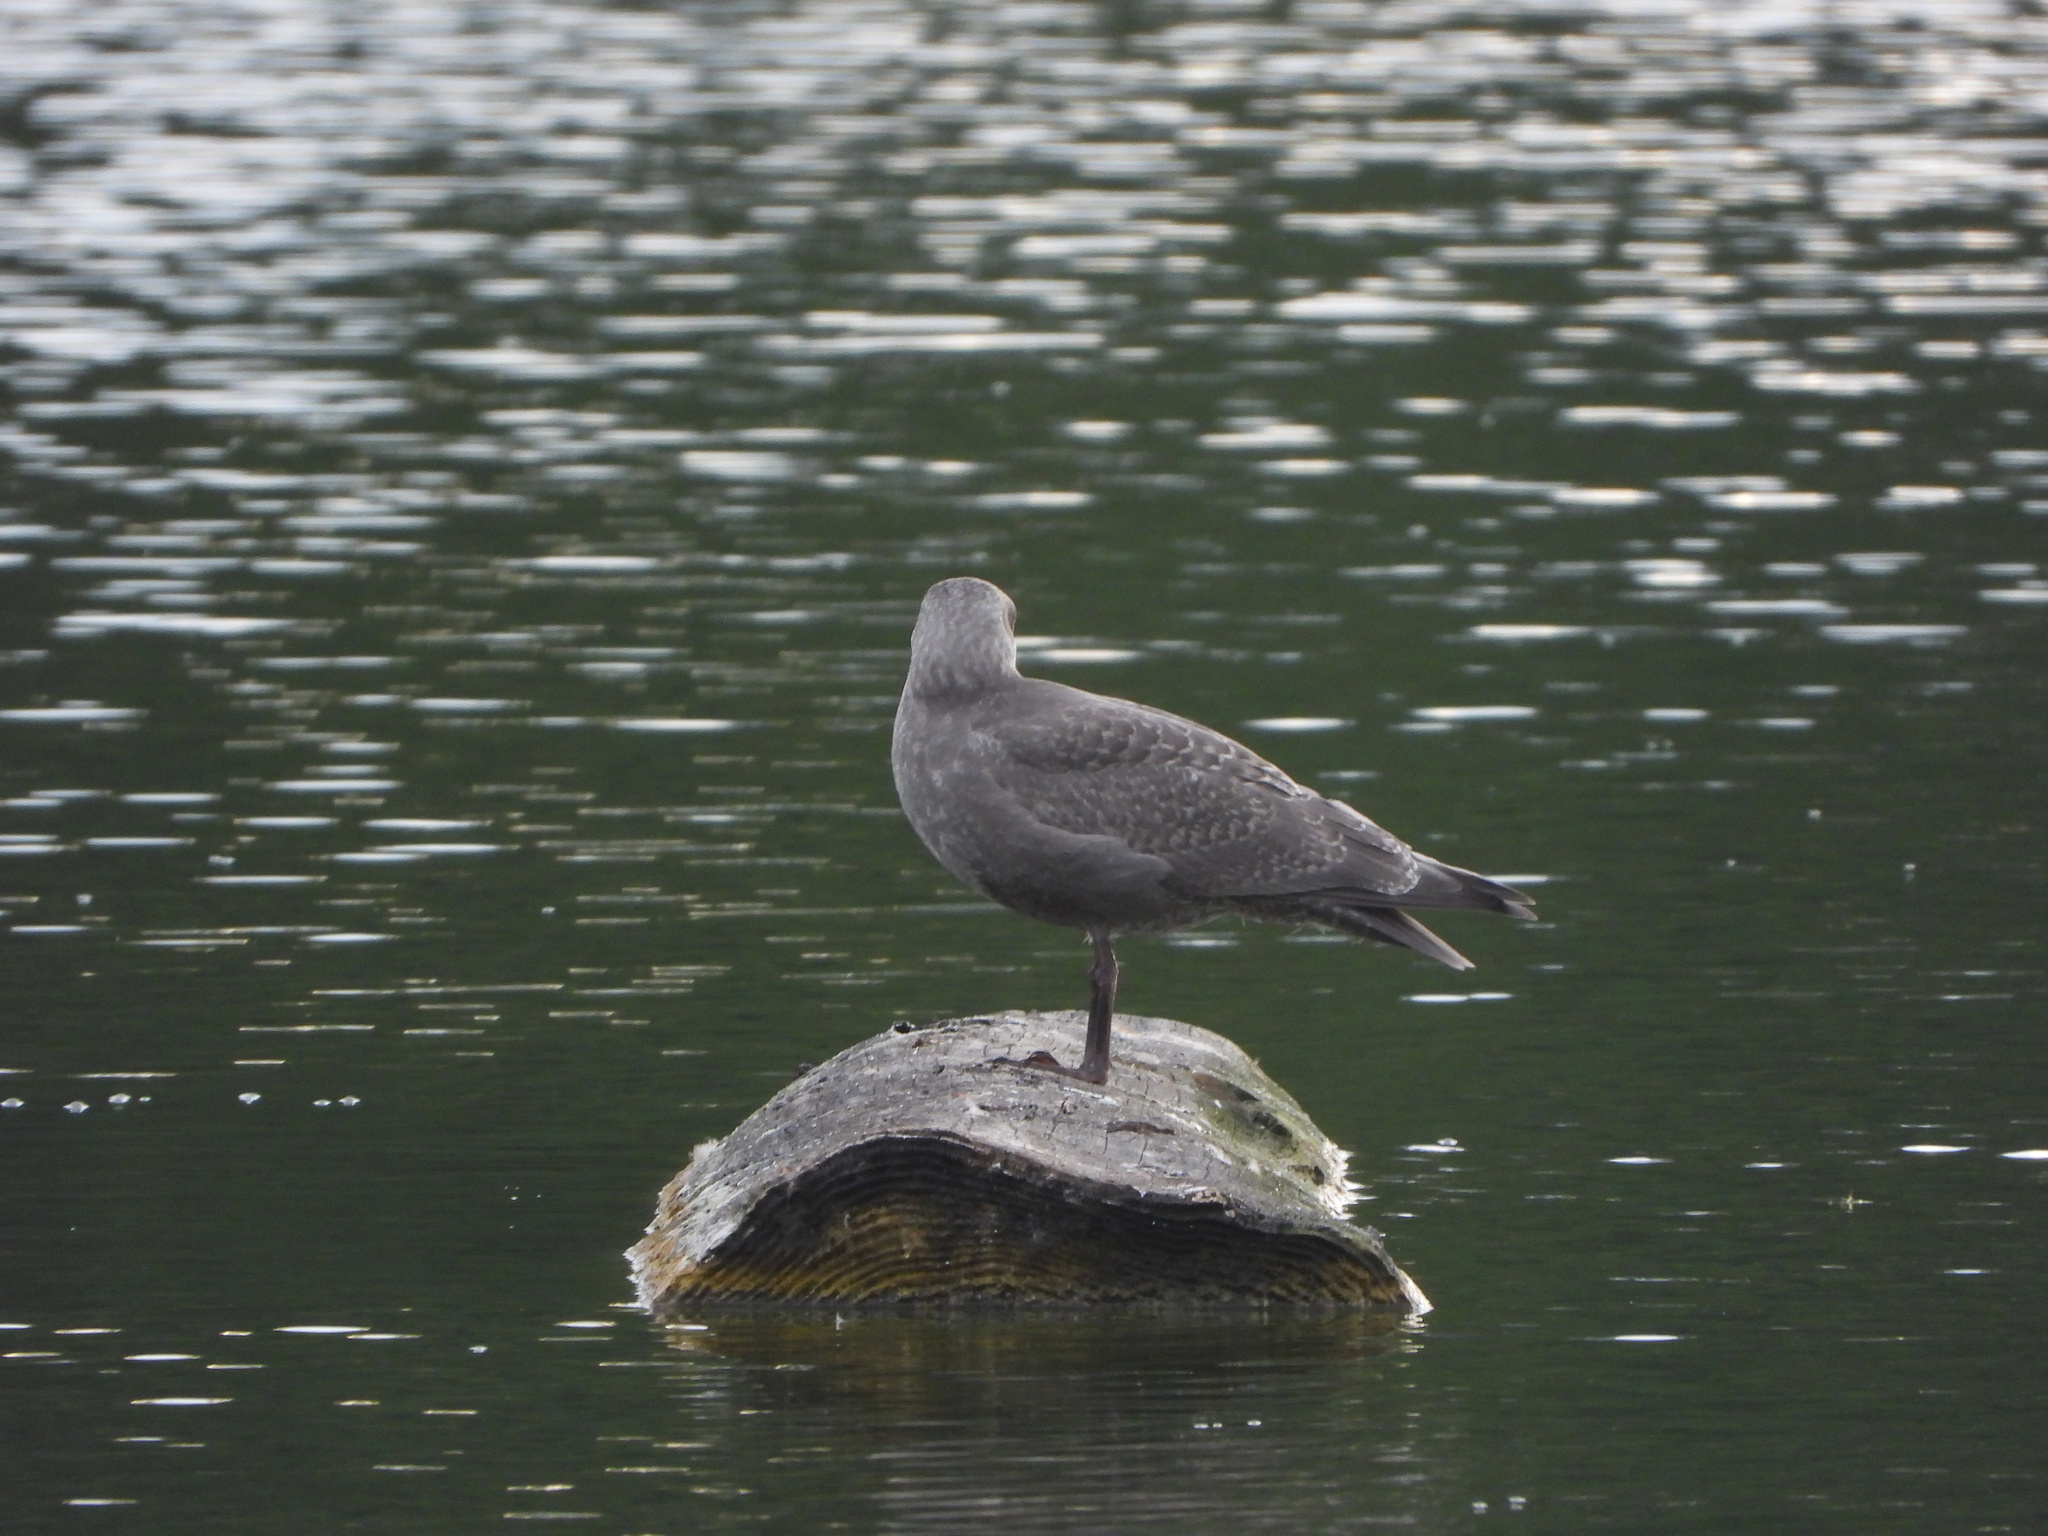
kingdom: Animalia
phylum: Chordata
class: Aves
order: Charadriiformes
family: Laridae
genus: Larus
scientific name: Larus
